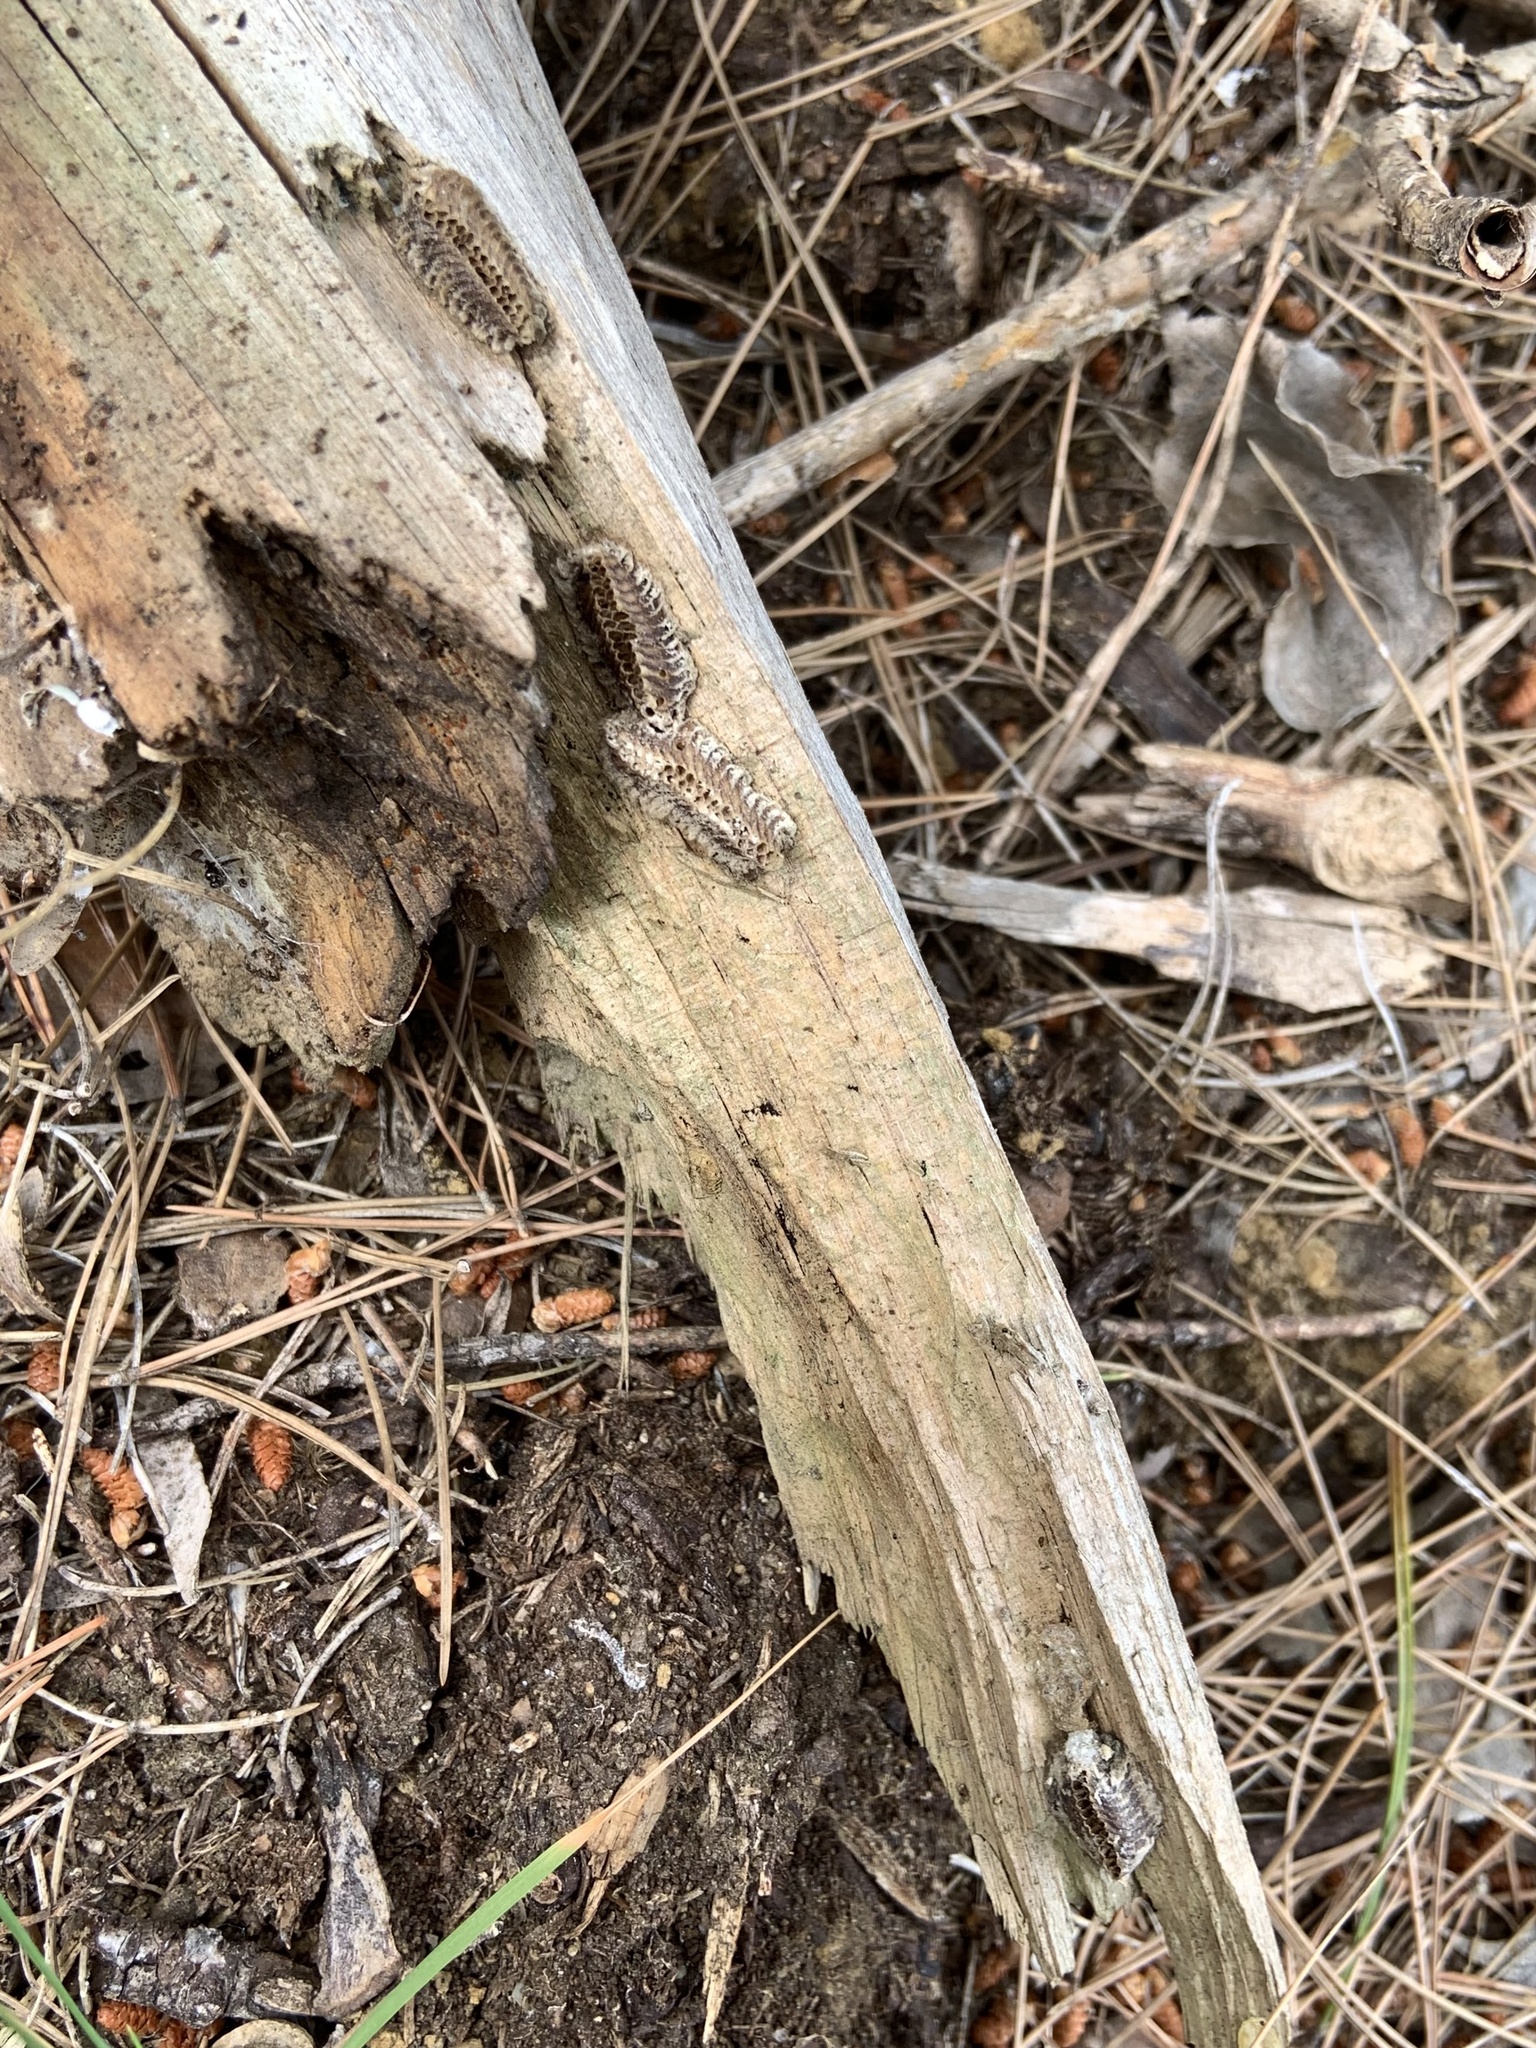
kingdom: Animalia
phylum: Arthropoda
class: Insecta
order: Mantodea
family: Eremiaphilidae
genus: Iris
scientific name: Iris oratoria
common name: Mediterranean mantis
